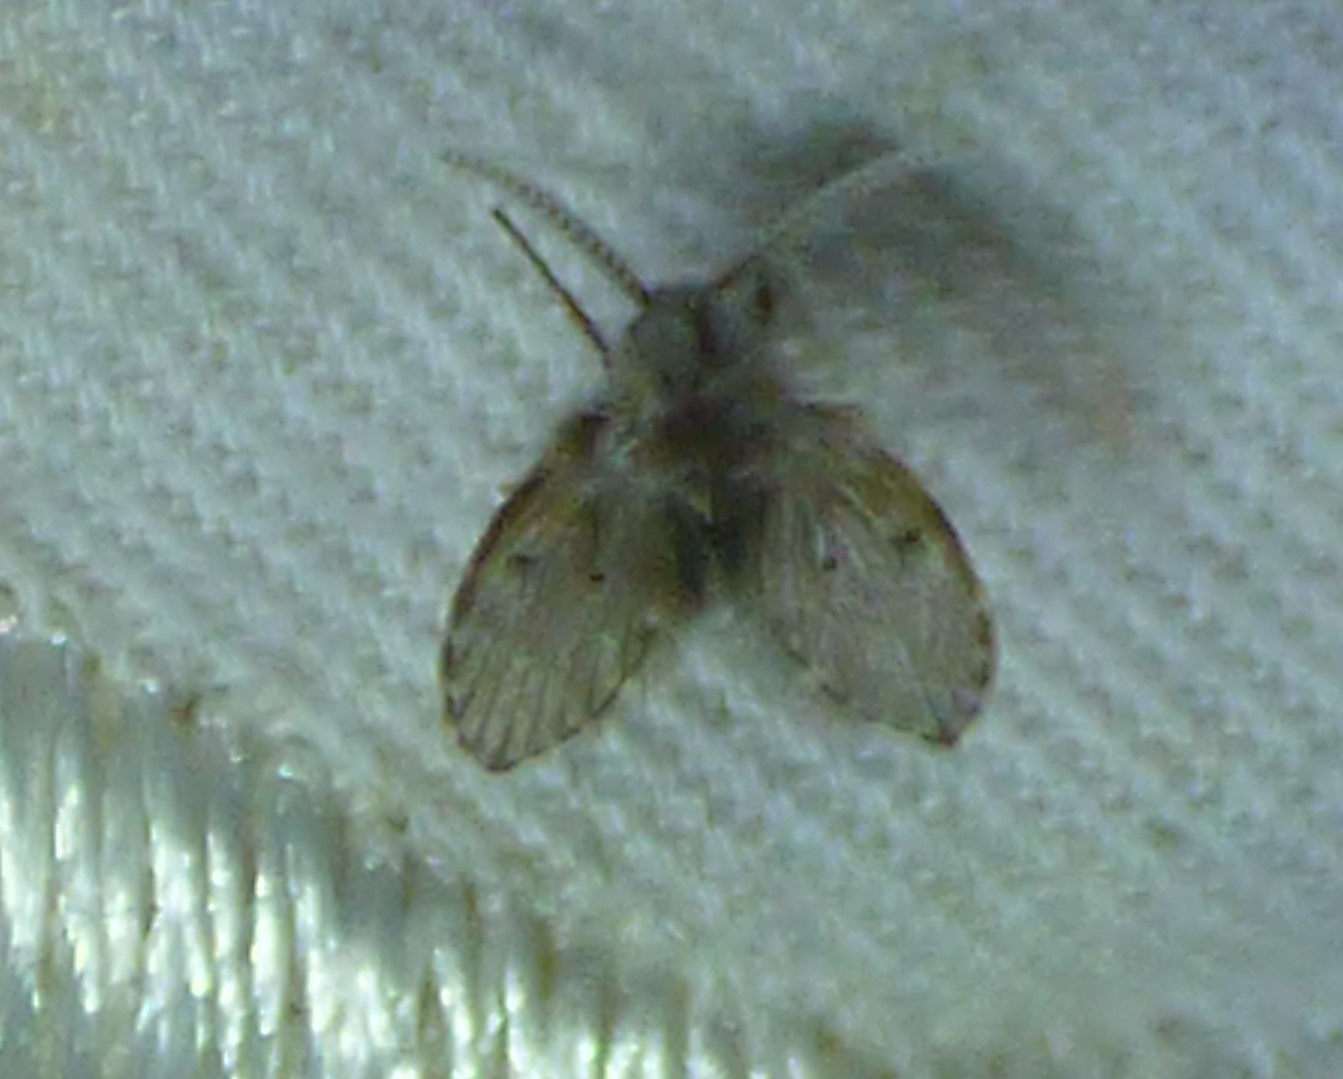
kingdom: Animalia
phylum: Arthropoda
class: Insecta
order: Diptera
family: Psychodidae
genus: Clogmia
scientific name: Clogmia albipunctatus
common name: White-spotted moth fly
